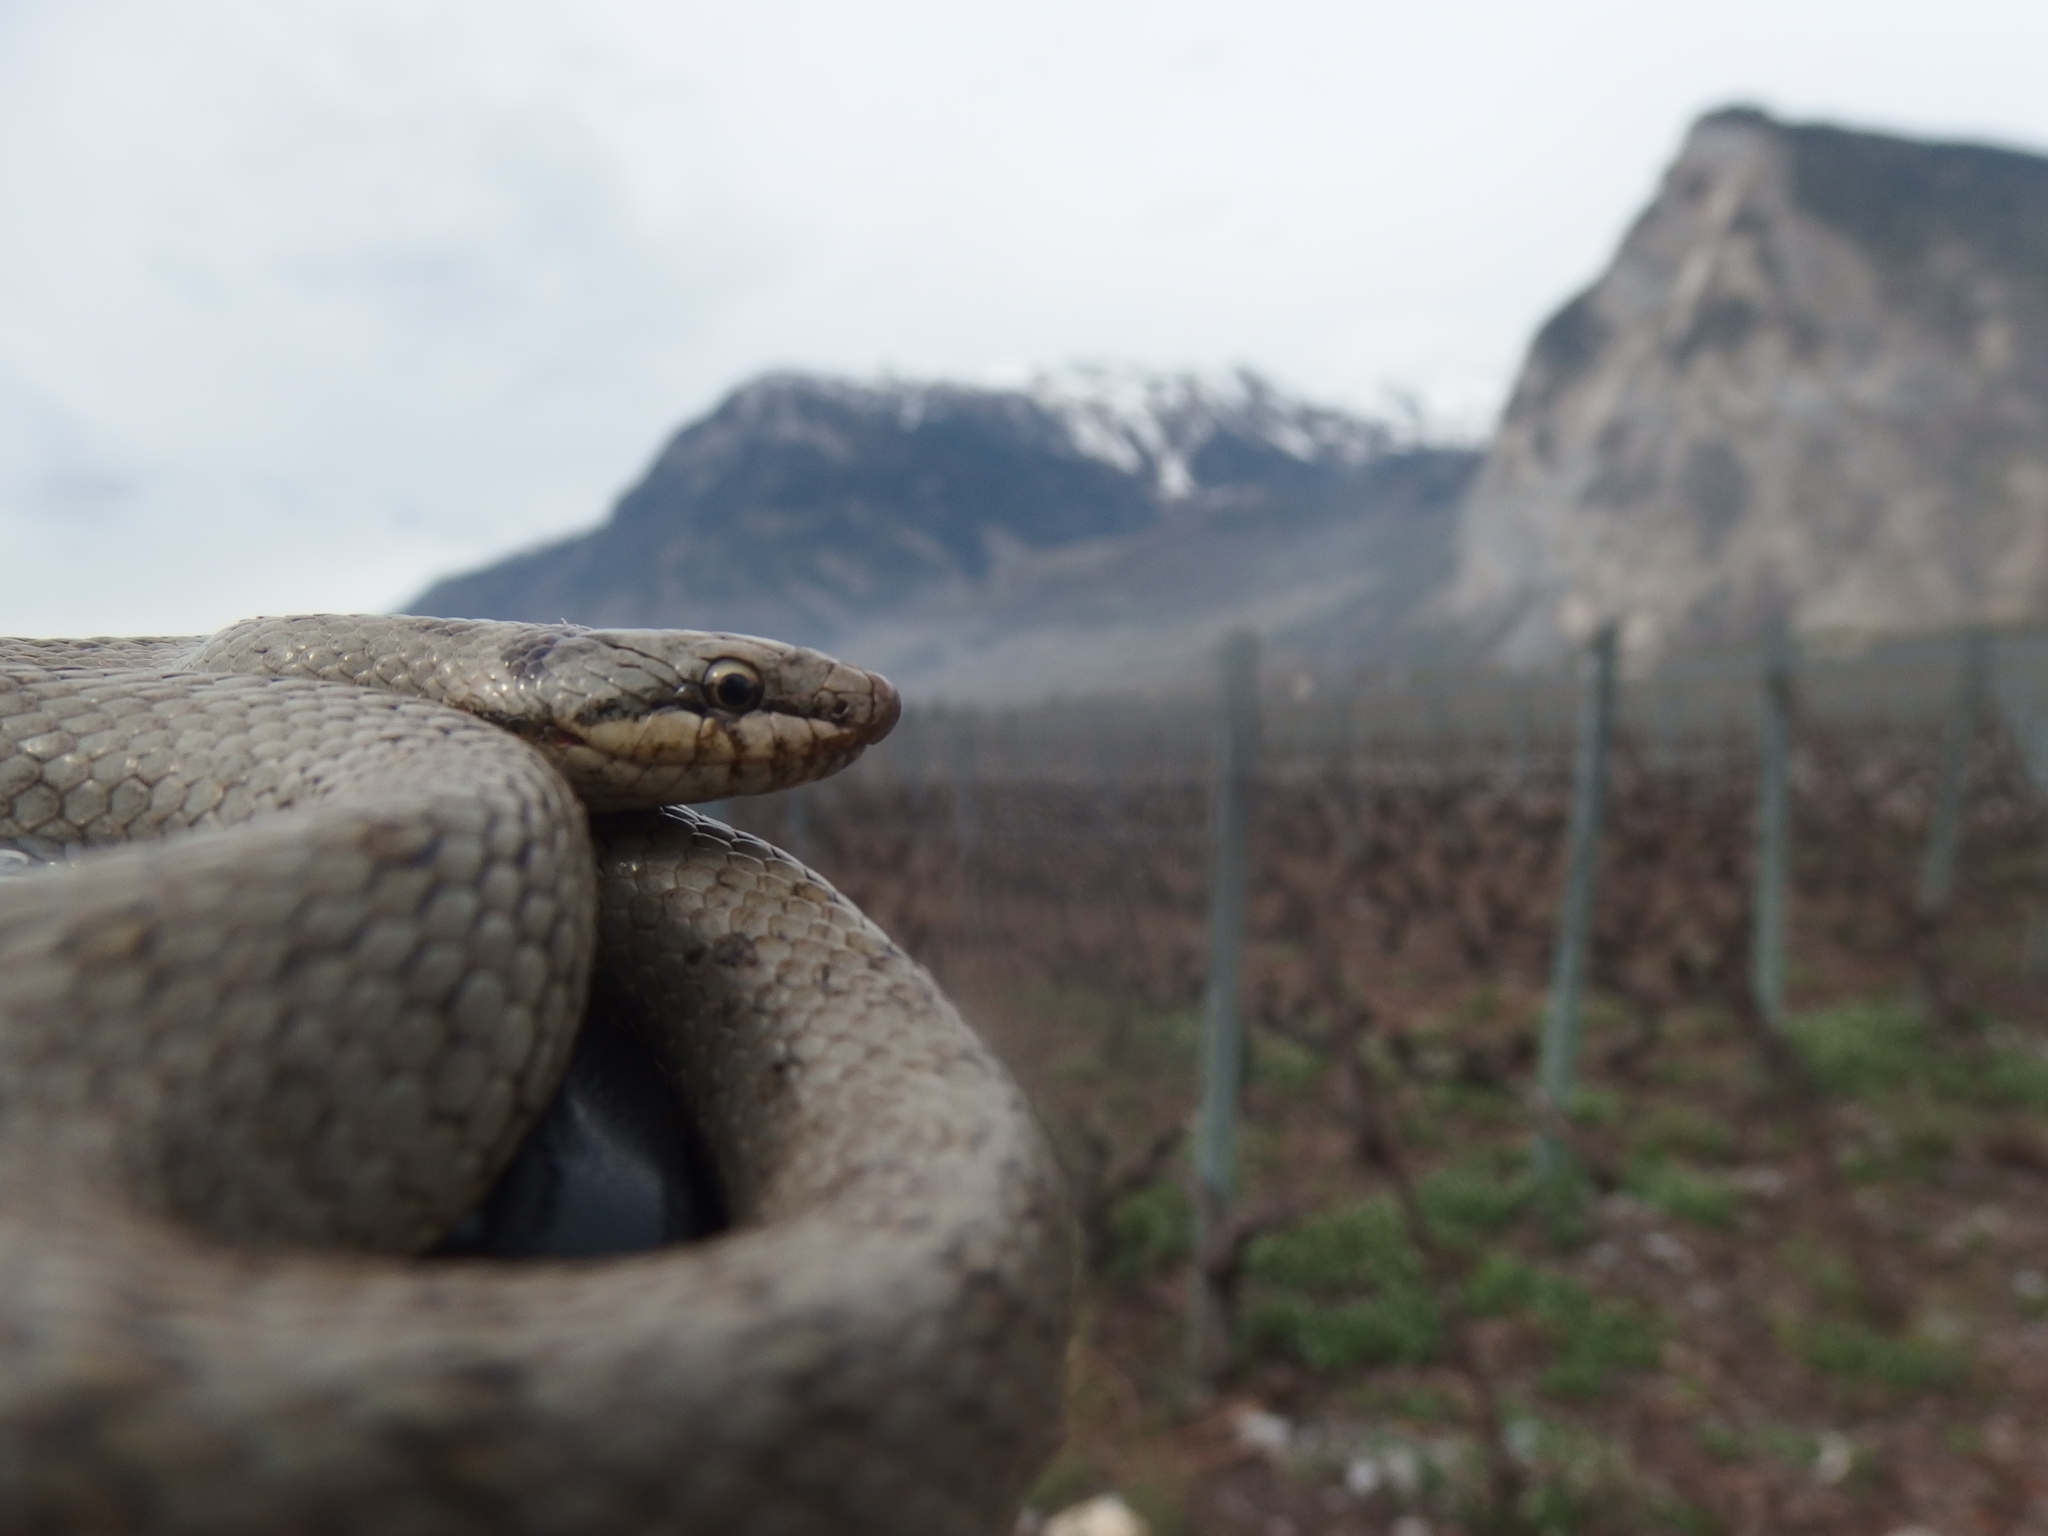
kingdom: Animalia
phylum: Chordata
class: Squamata
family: Colubridae
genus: Coronella
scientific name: Coronella austriaca
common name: Smooth snake
